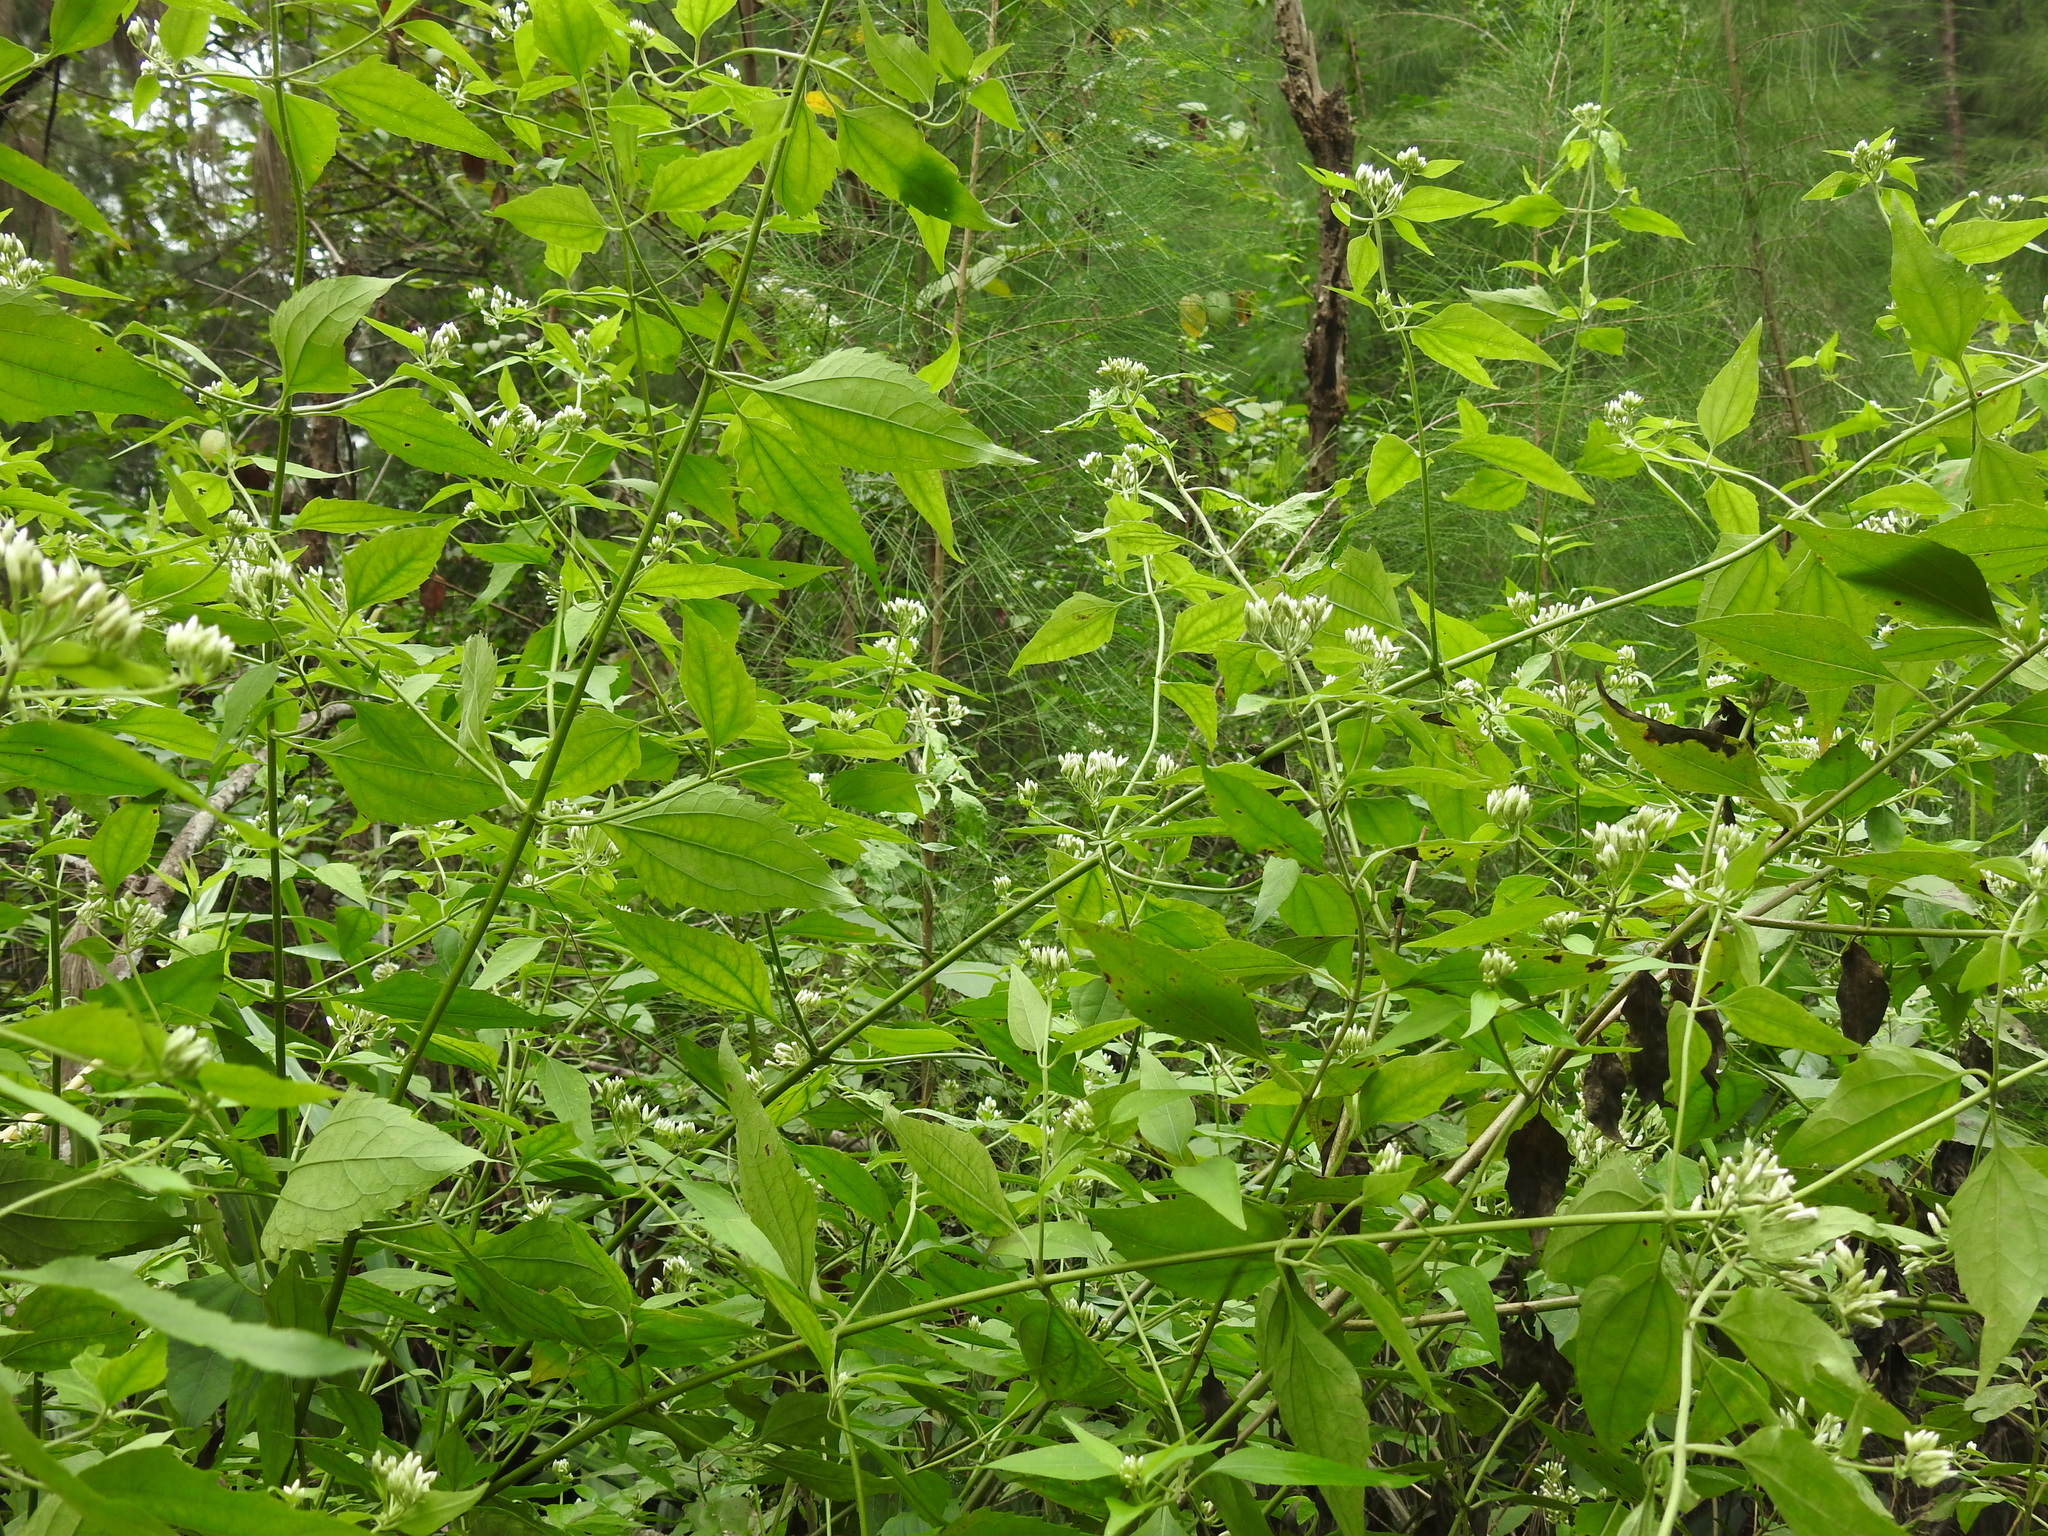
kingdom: Plantae
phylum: Tracheophyta
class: Magnoliopsida
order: Asterales
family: Asteraceae
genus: Chromolaena
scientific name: Chromolaena odorata
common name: Siamweed
